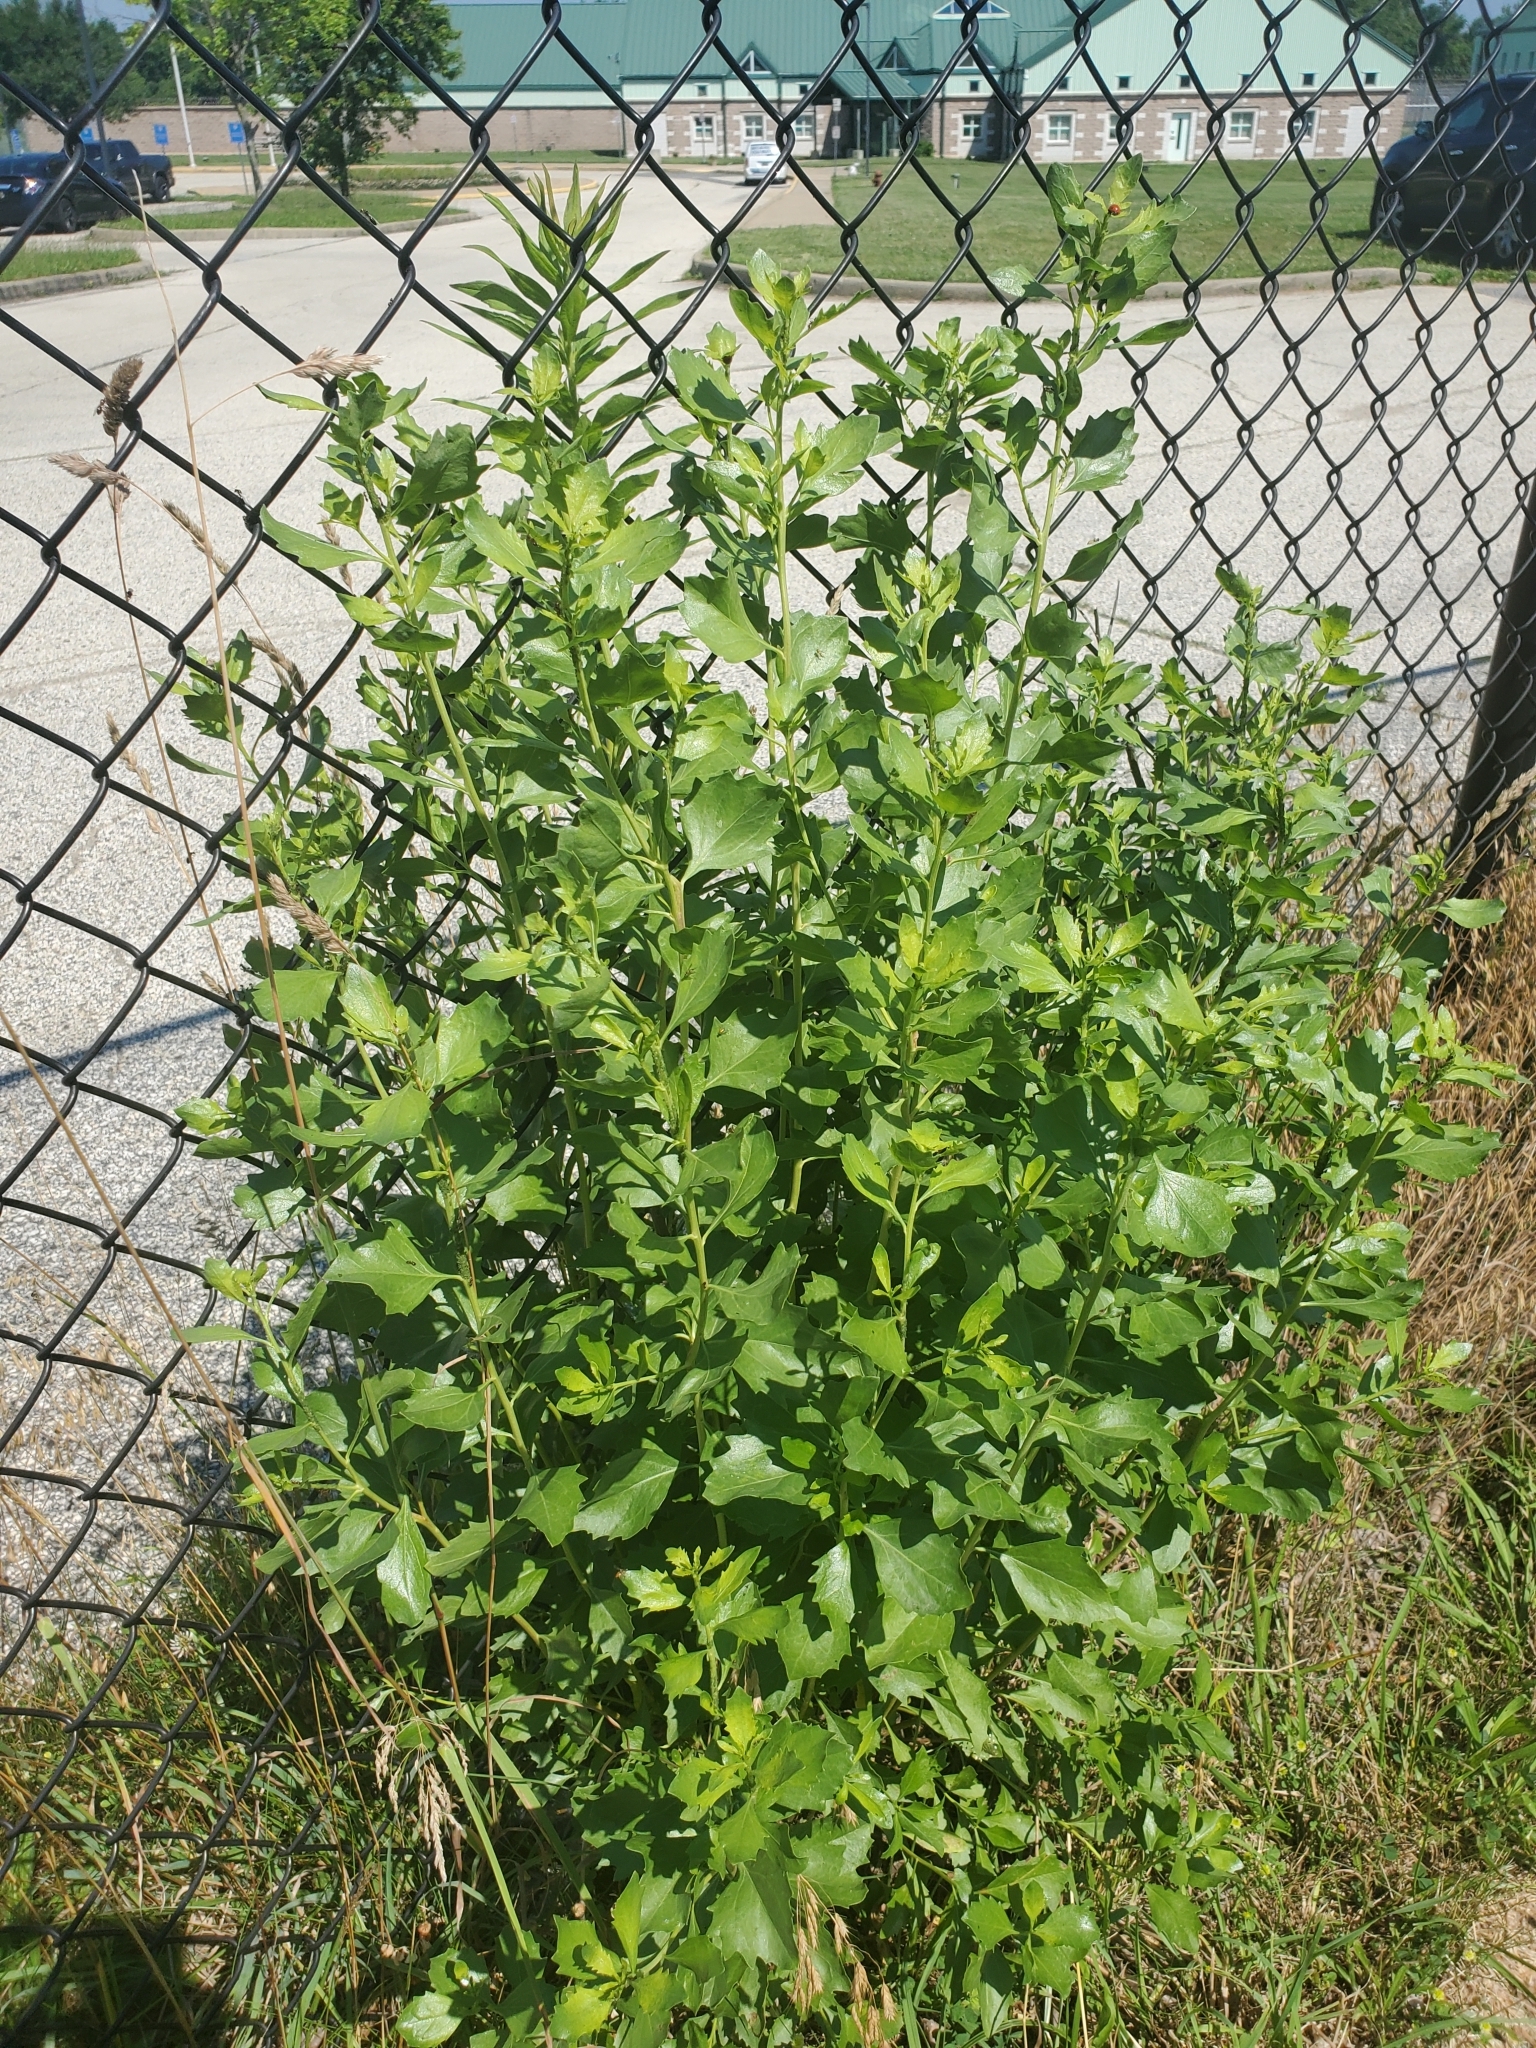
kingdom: Plantae
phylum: Tracheophyta
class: Magnoliopsida
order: Asterales
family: Asteraceae
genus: Baccharis
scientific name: Baccharis halimifolia
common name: Eastern baccharis
